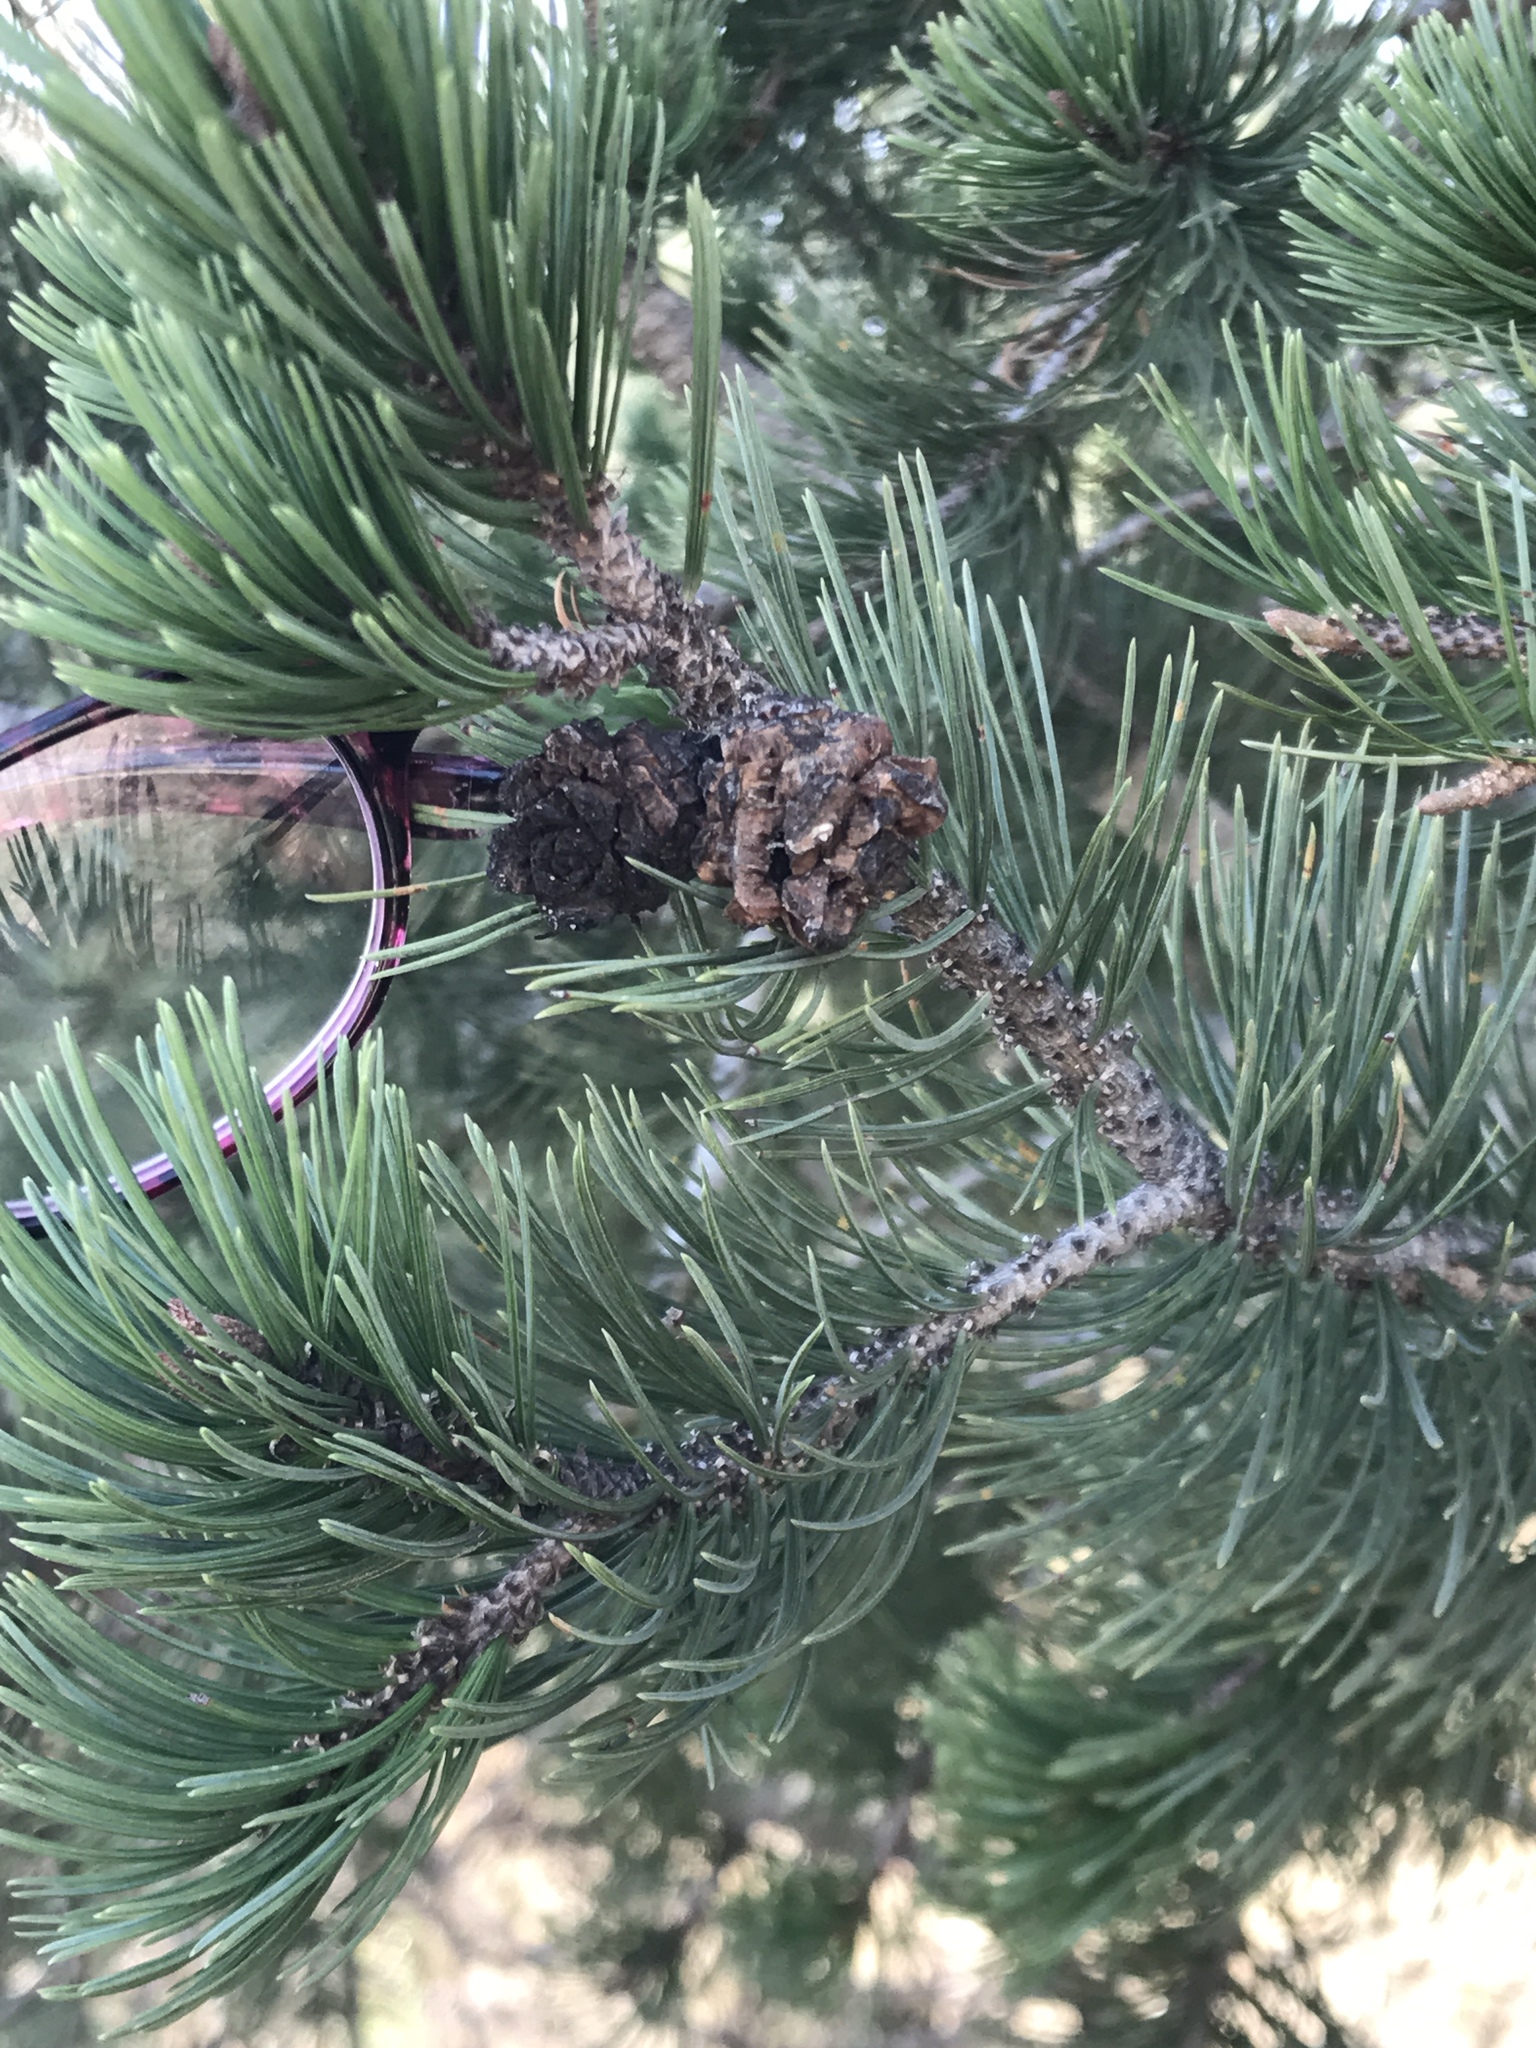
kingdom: Plantae
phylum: Tracheophyta
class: Pinopsida
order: Pinales
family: Pinaceae
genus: Pinus
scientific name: Pinus cembroides
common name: Mexican nut pine
